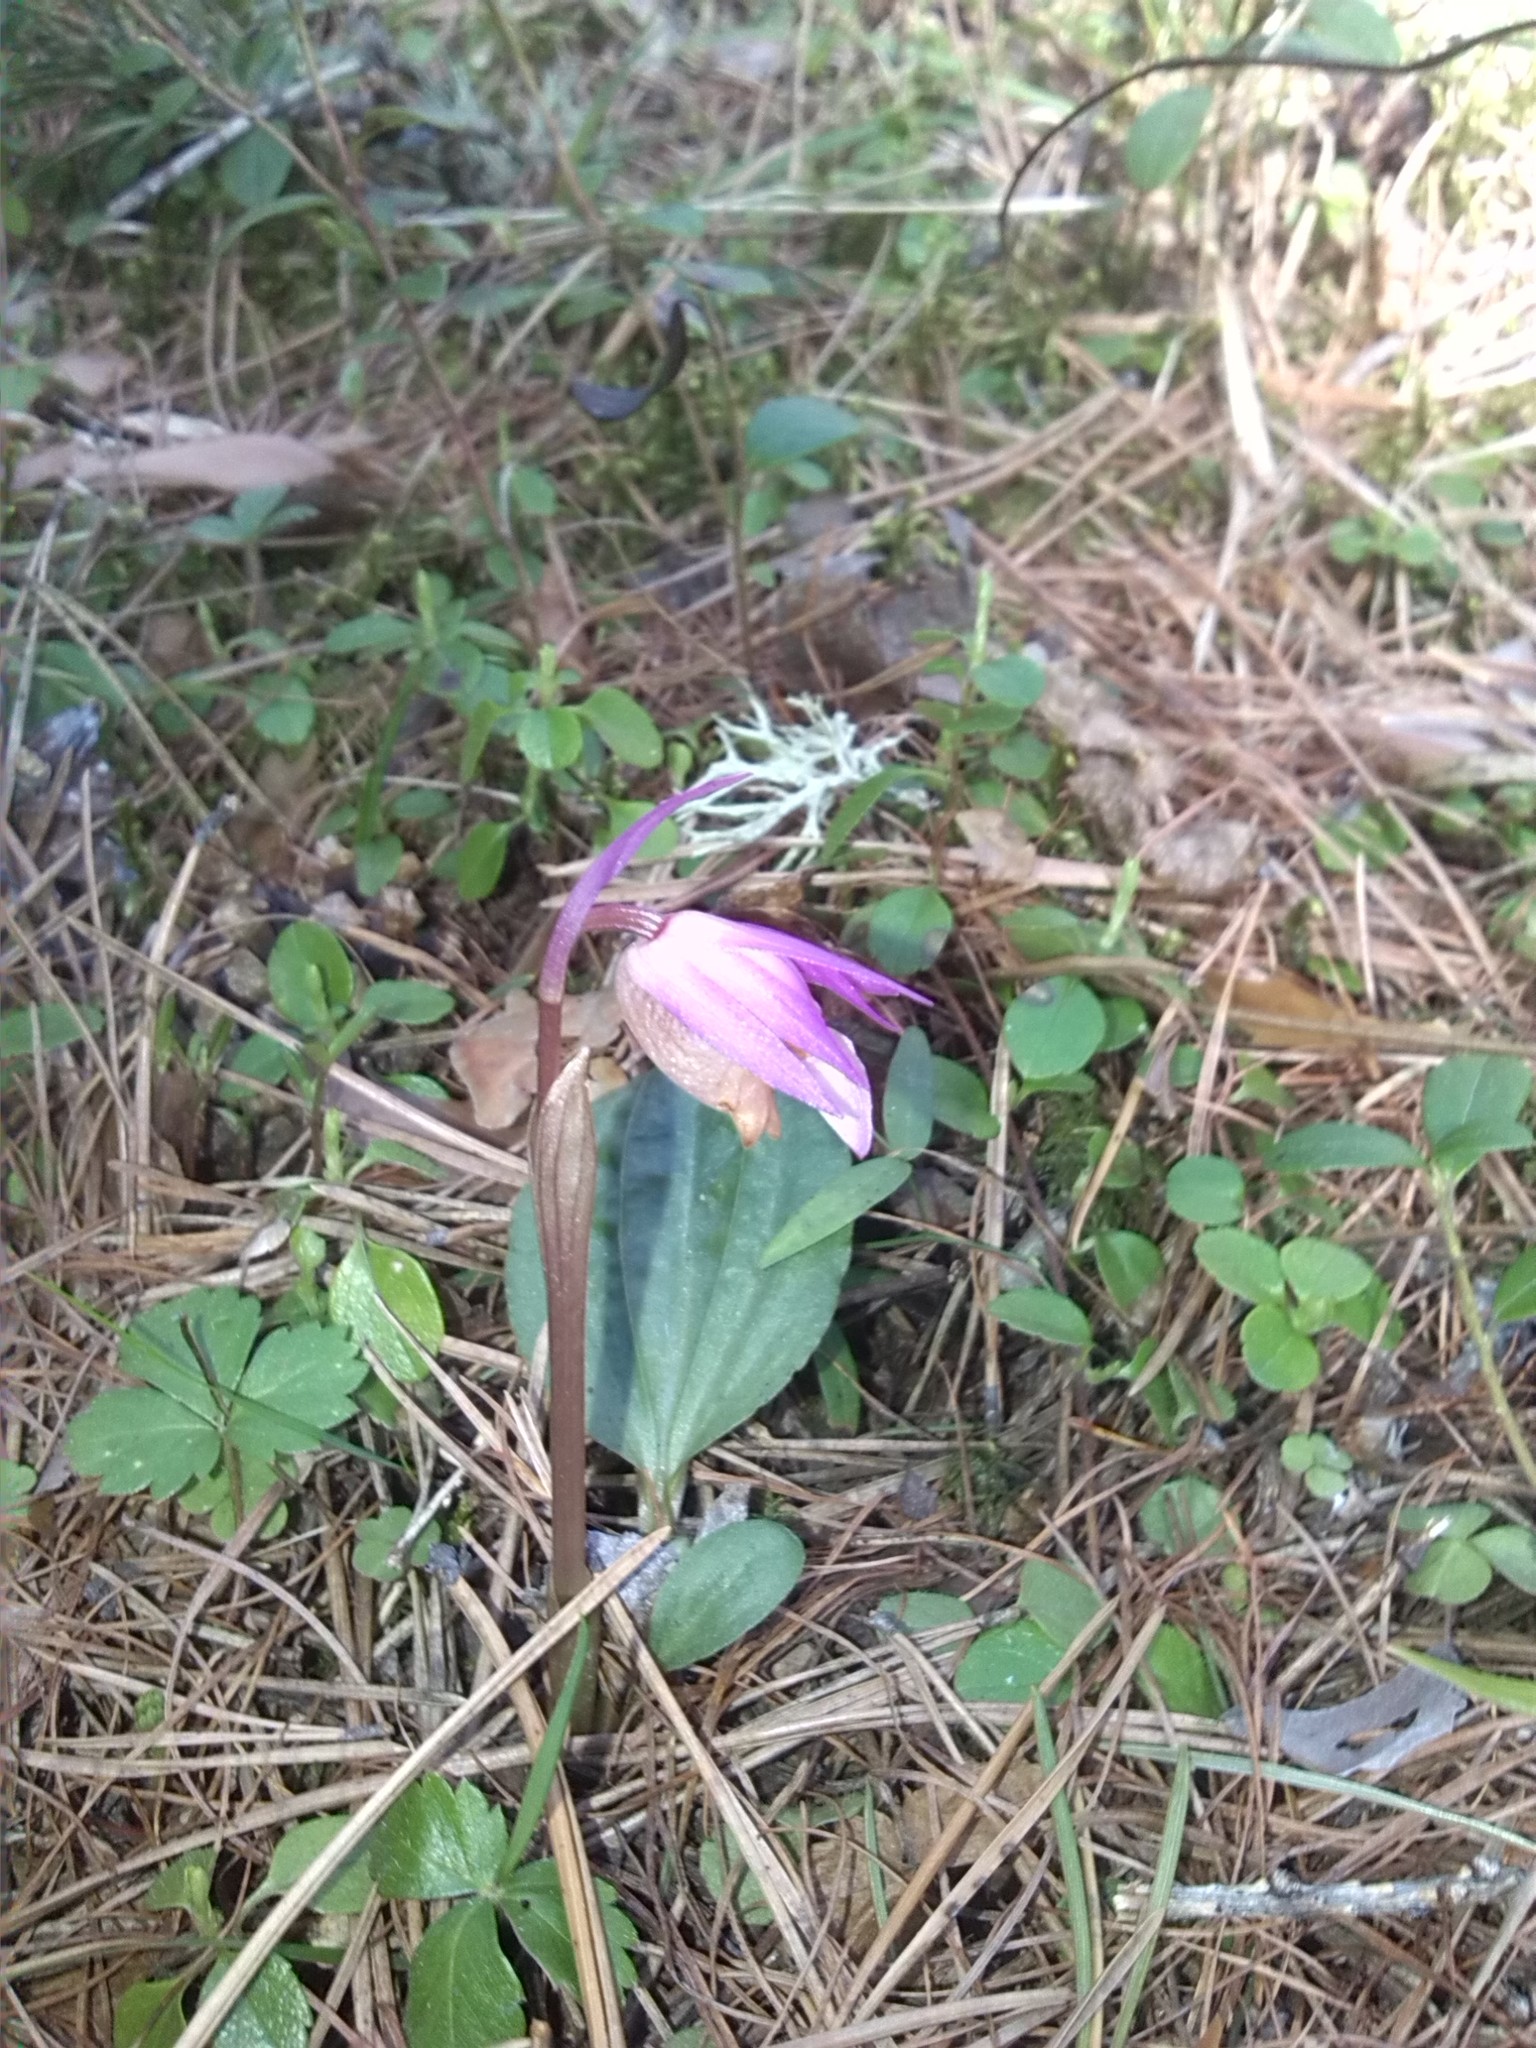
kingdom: Plantae
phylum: Tracheophyta
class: Liliopsida
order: Asparagales
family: Orchidaceae
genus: Calypso
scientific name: Calypso bulbosa
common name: Calypso
